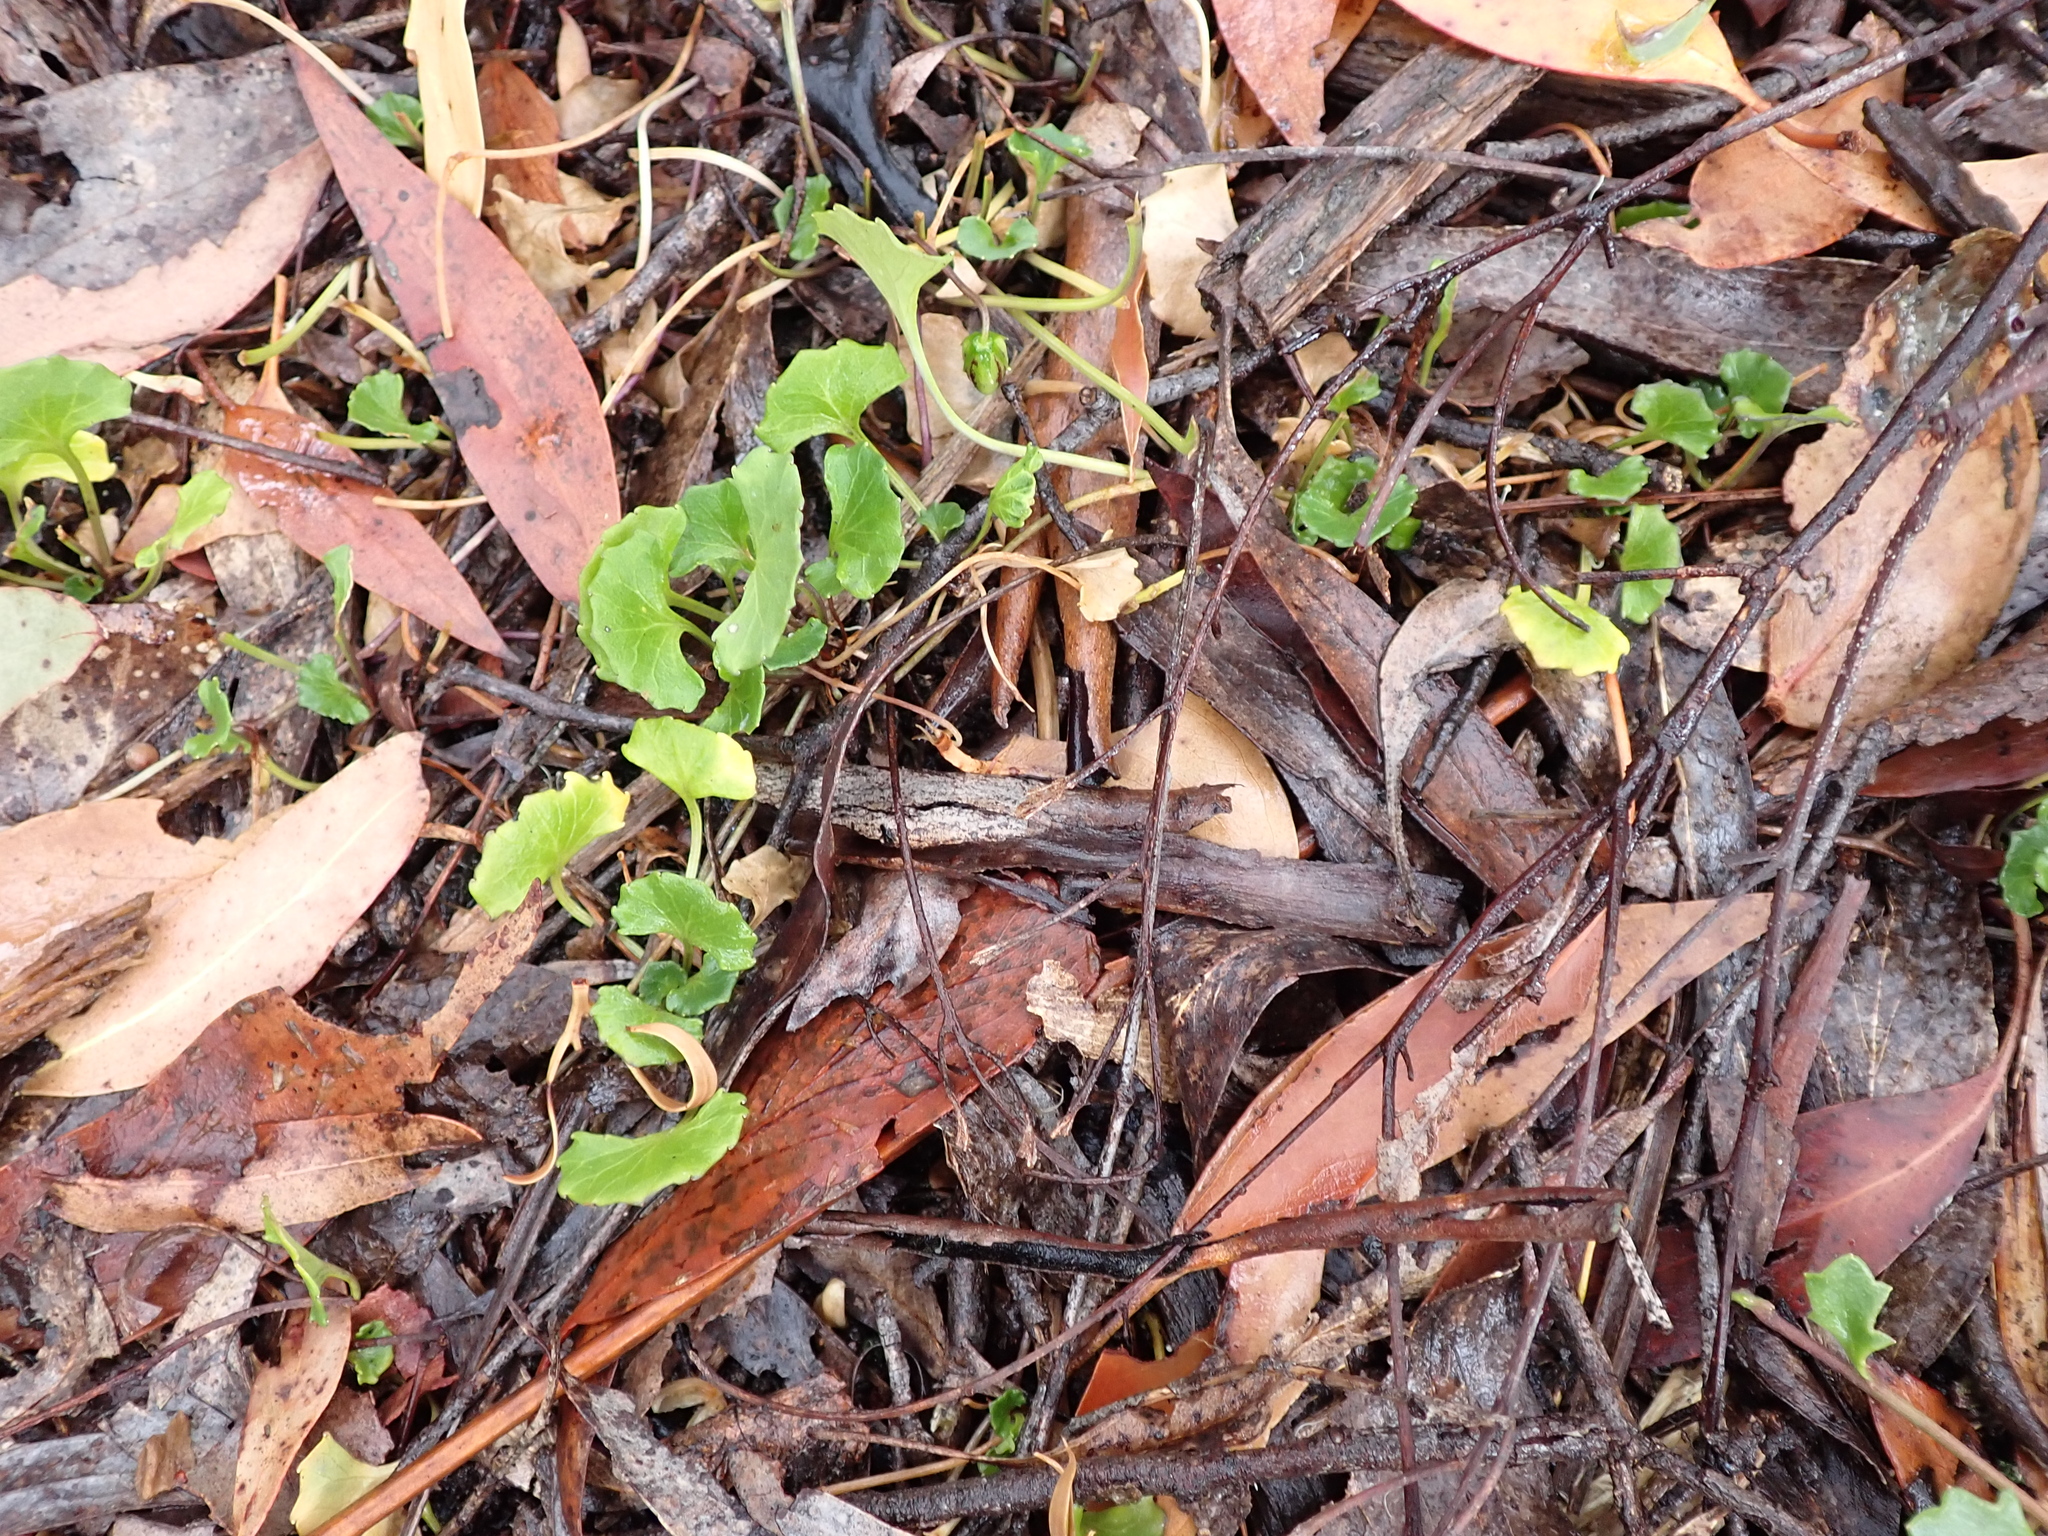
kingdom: Plantae
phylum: Tracheophyta
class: Magnoliopsida
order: Malpighiales
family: Violaceae
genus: Viola
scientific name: Viola hederacea
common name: Australian violet
